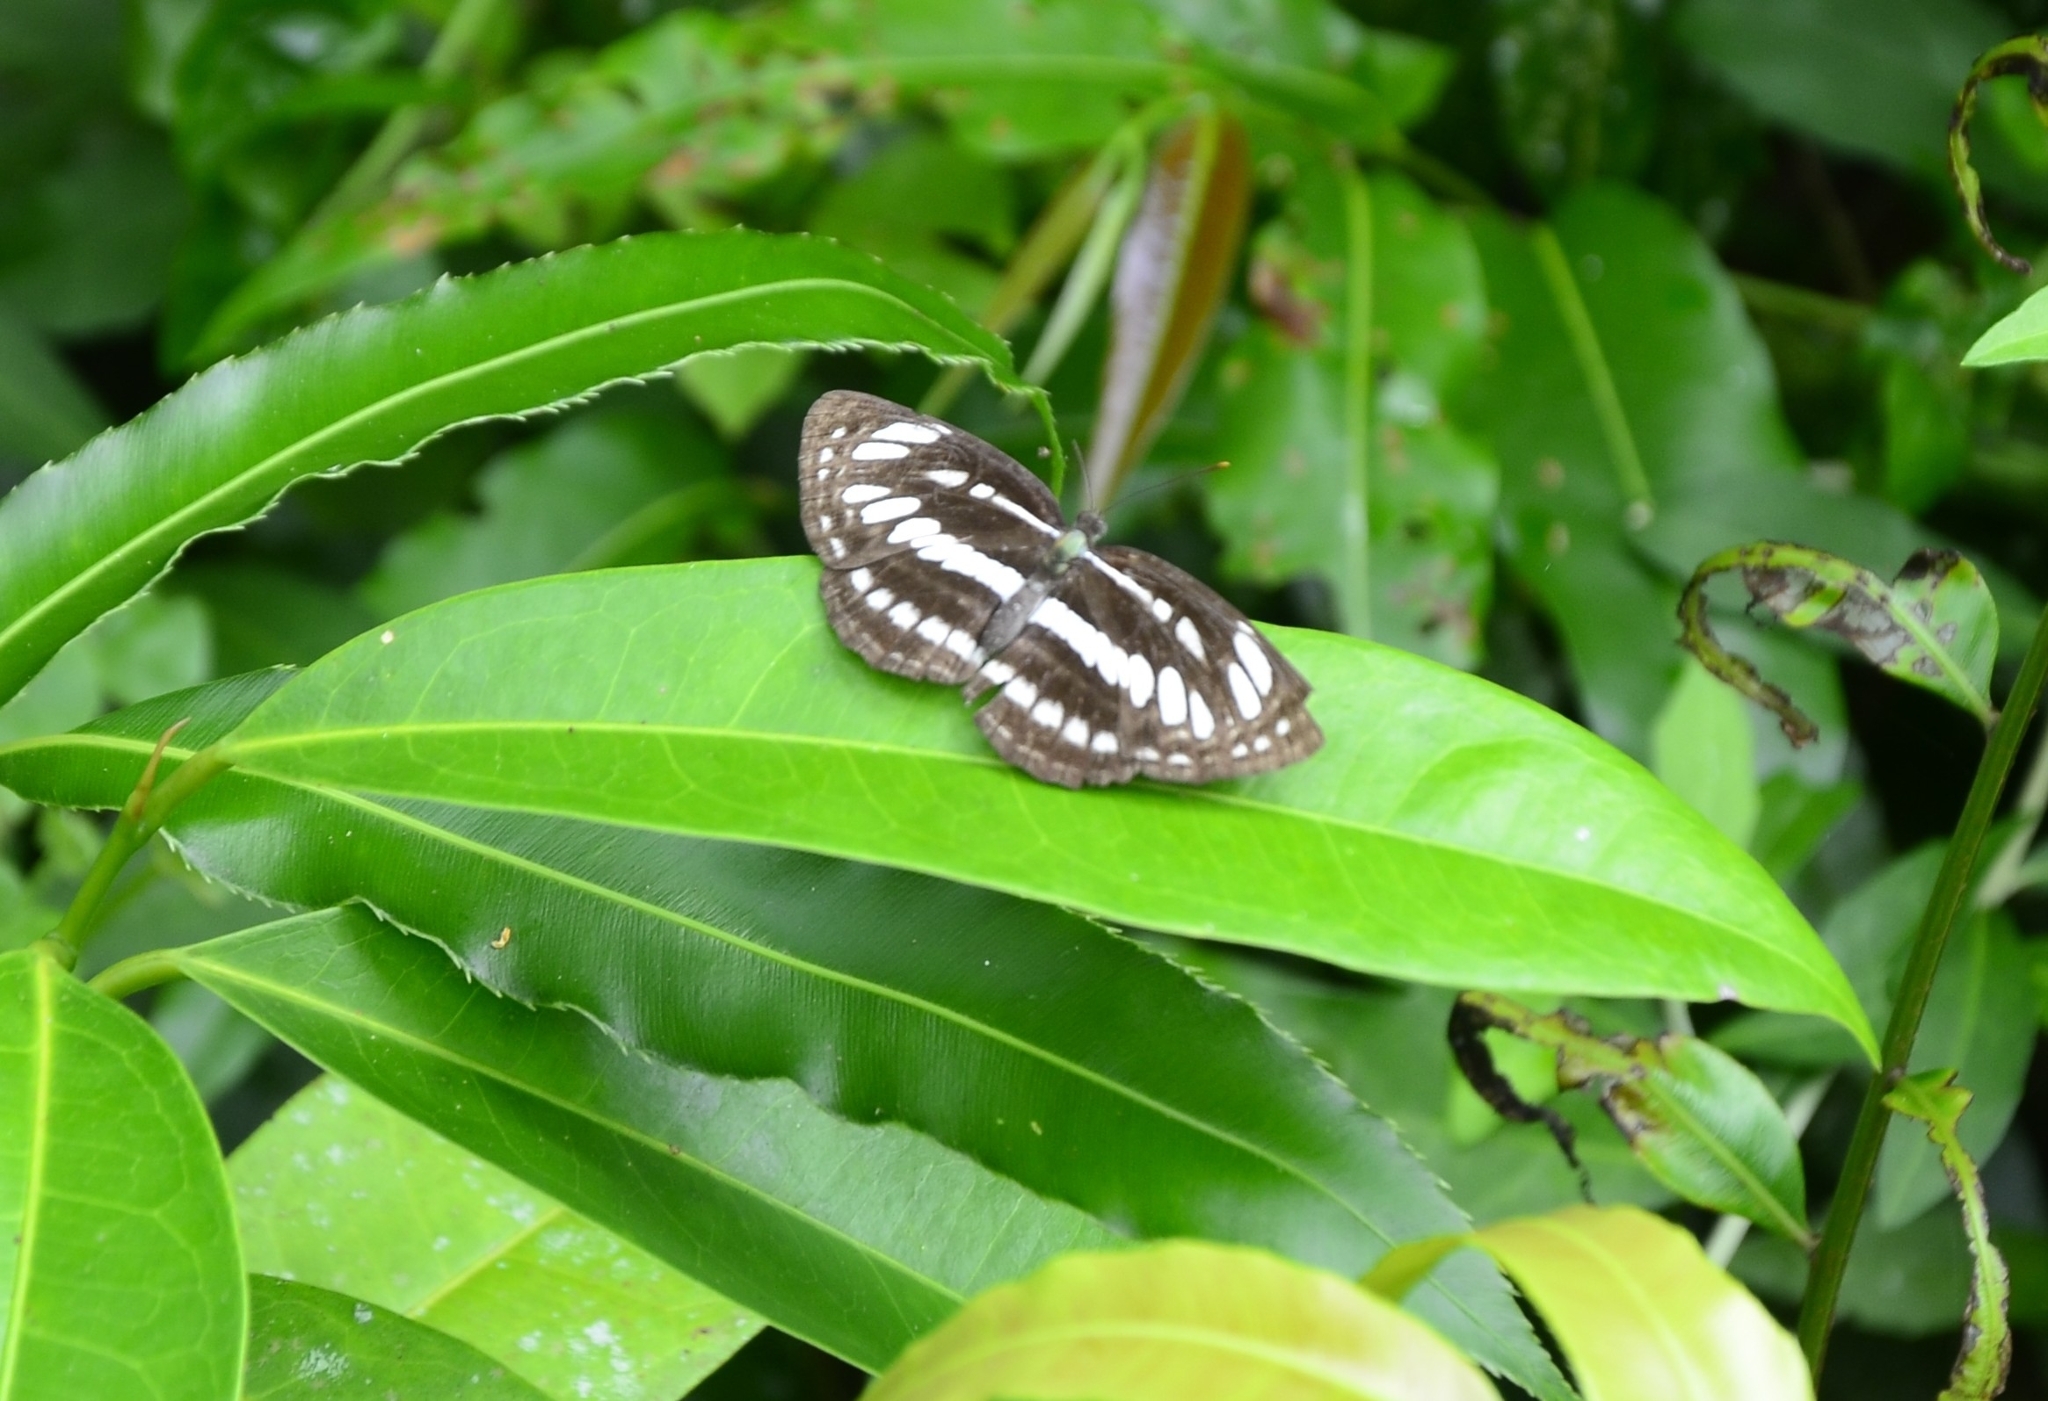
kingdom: Animalia
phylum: Arthropoda
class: Insecta
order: Lepidoptera
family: Nymphalidae
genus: Neptis
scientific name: Neptis hylas
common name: Common sailer
